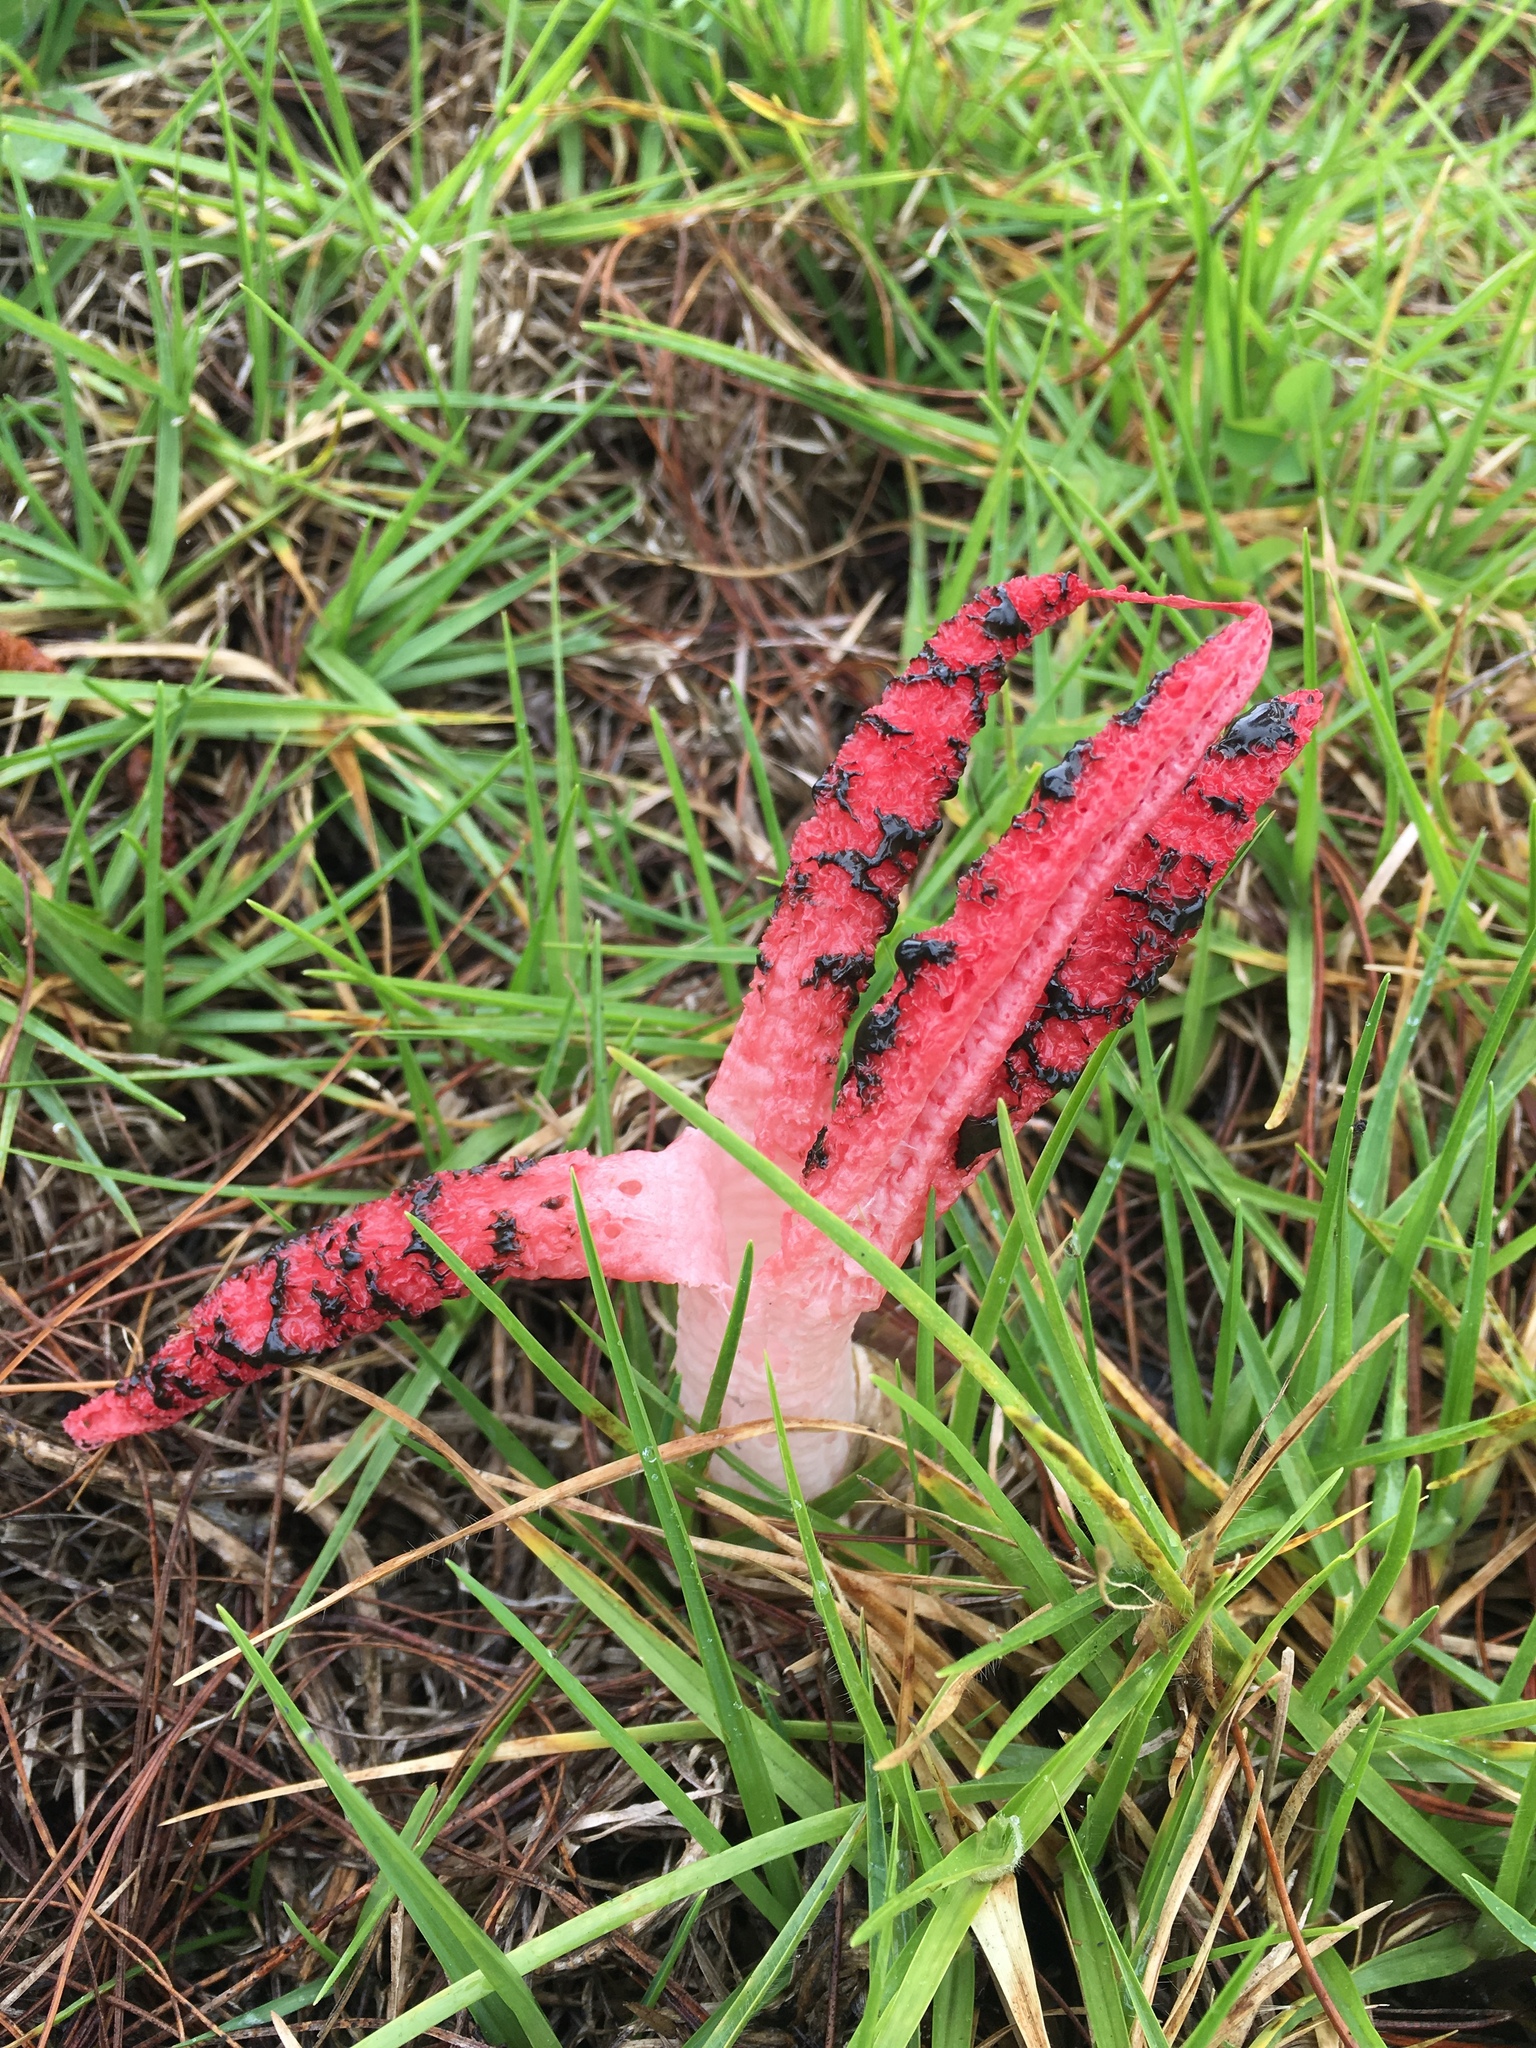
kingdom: Fungi
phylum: Basidiomycota
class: Agaricomycetes
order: Phallales
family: Phallaceae
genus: Clathrus
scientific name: Clathrus archeri
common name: Devil's fingers
